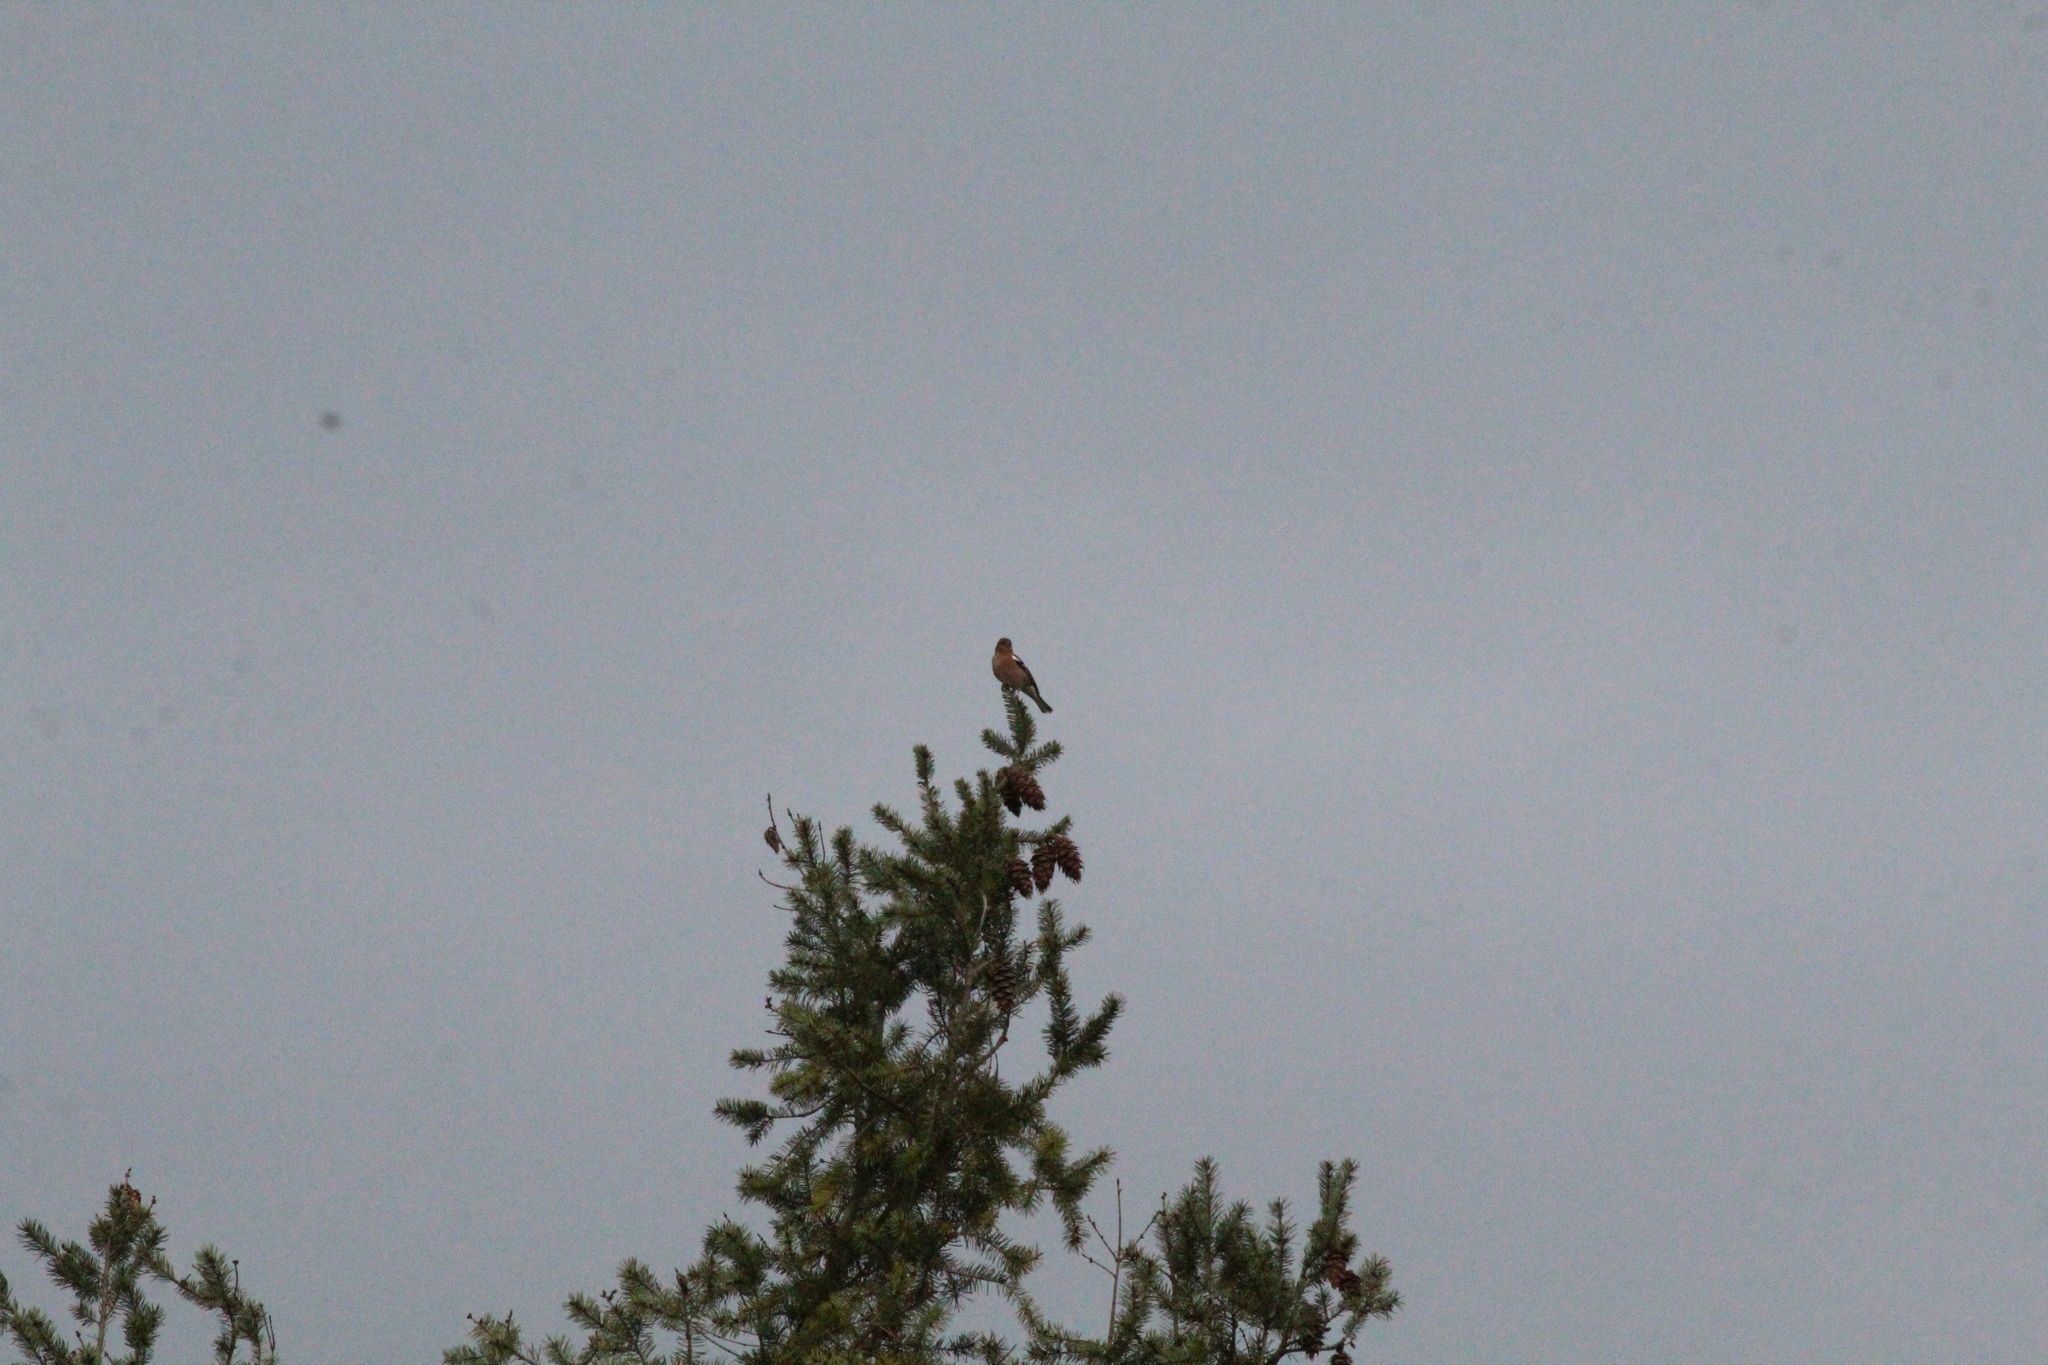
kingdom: Animalia
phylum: Chordata
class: Aves
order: Passeriformes
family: Fringillidae
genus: Fringilla
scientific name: Fringilla coelebs
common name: Common chaffinch
